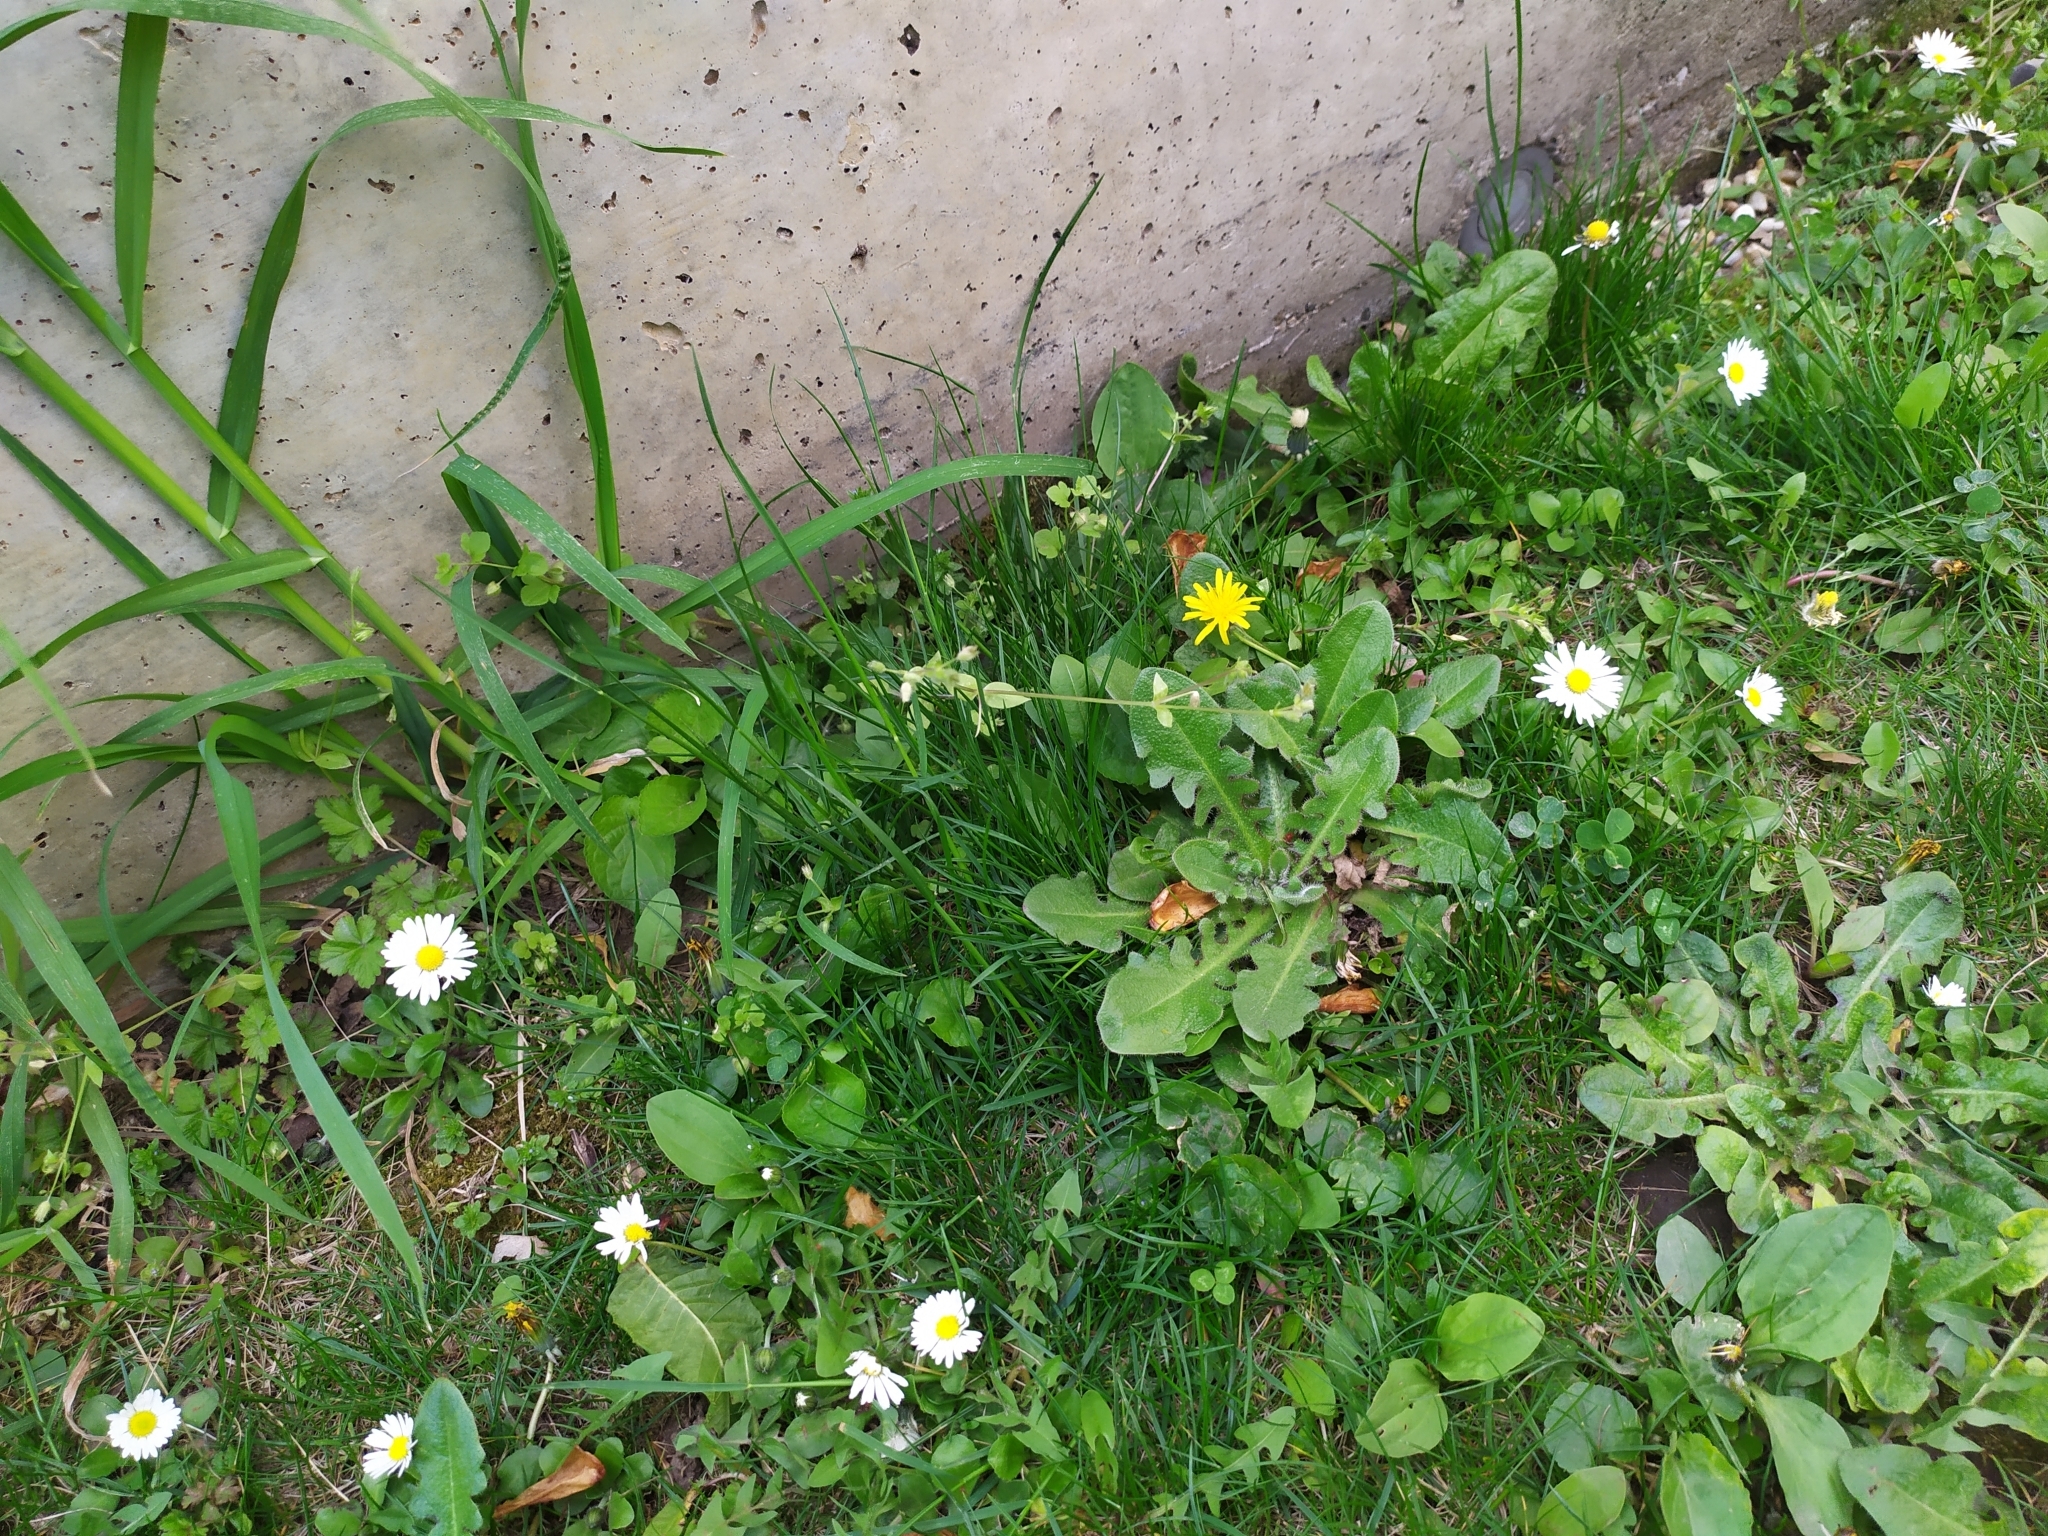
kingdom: Plantae
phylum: Tracheophyta
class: Magnoliopsida
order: Lamiales
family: Plantaginaceae
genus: Plantago
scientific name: Plantago lanceolata
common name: Ribwort plantain
